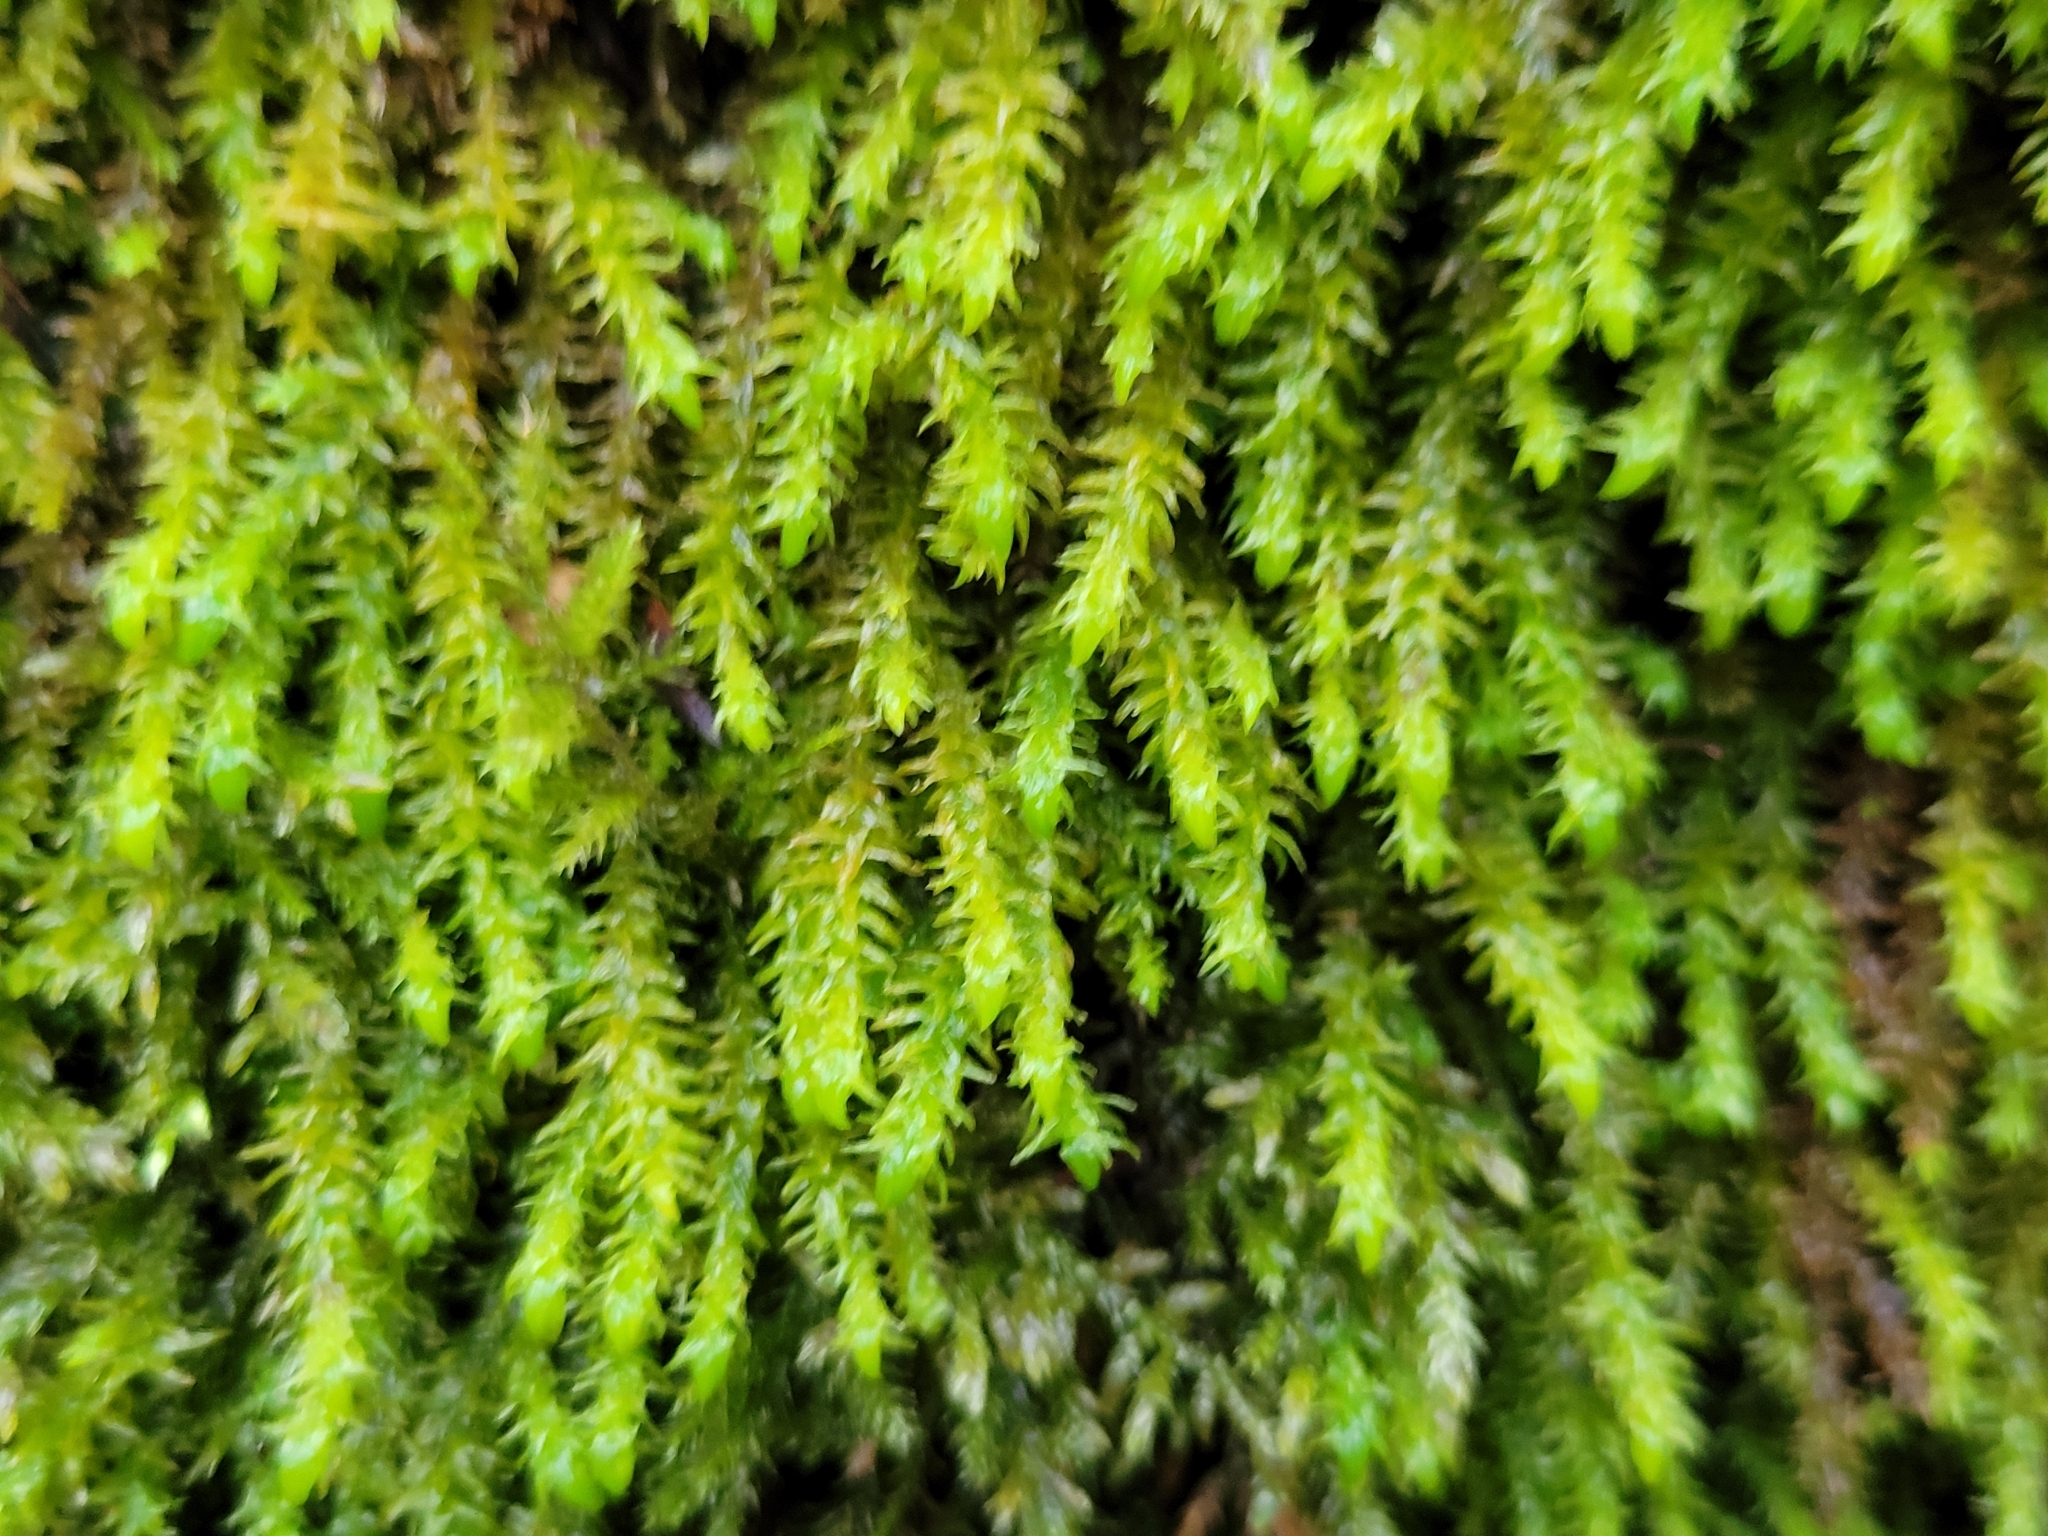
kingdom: Plantae
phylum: Bryophyta
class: Bryopsida
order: Hypnales
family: Anomodontaceae
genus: Anomodon
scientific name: Anomodon viticulosus
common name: Tall anomodon
